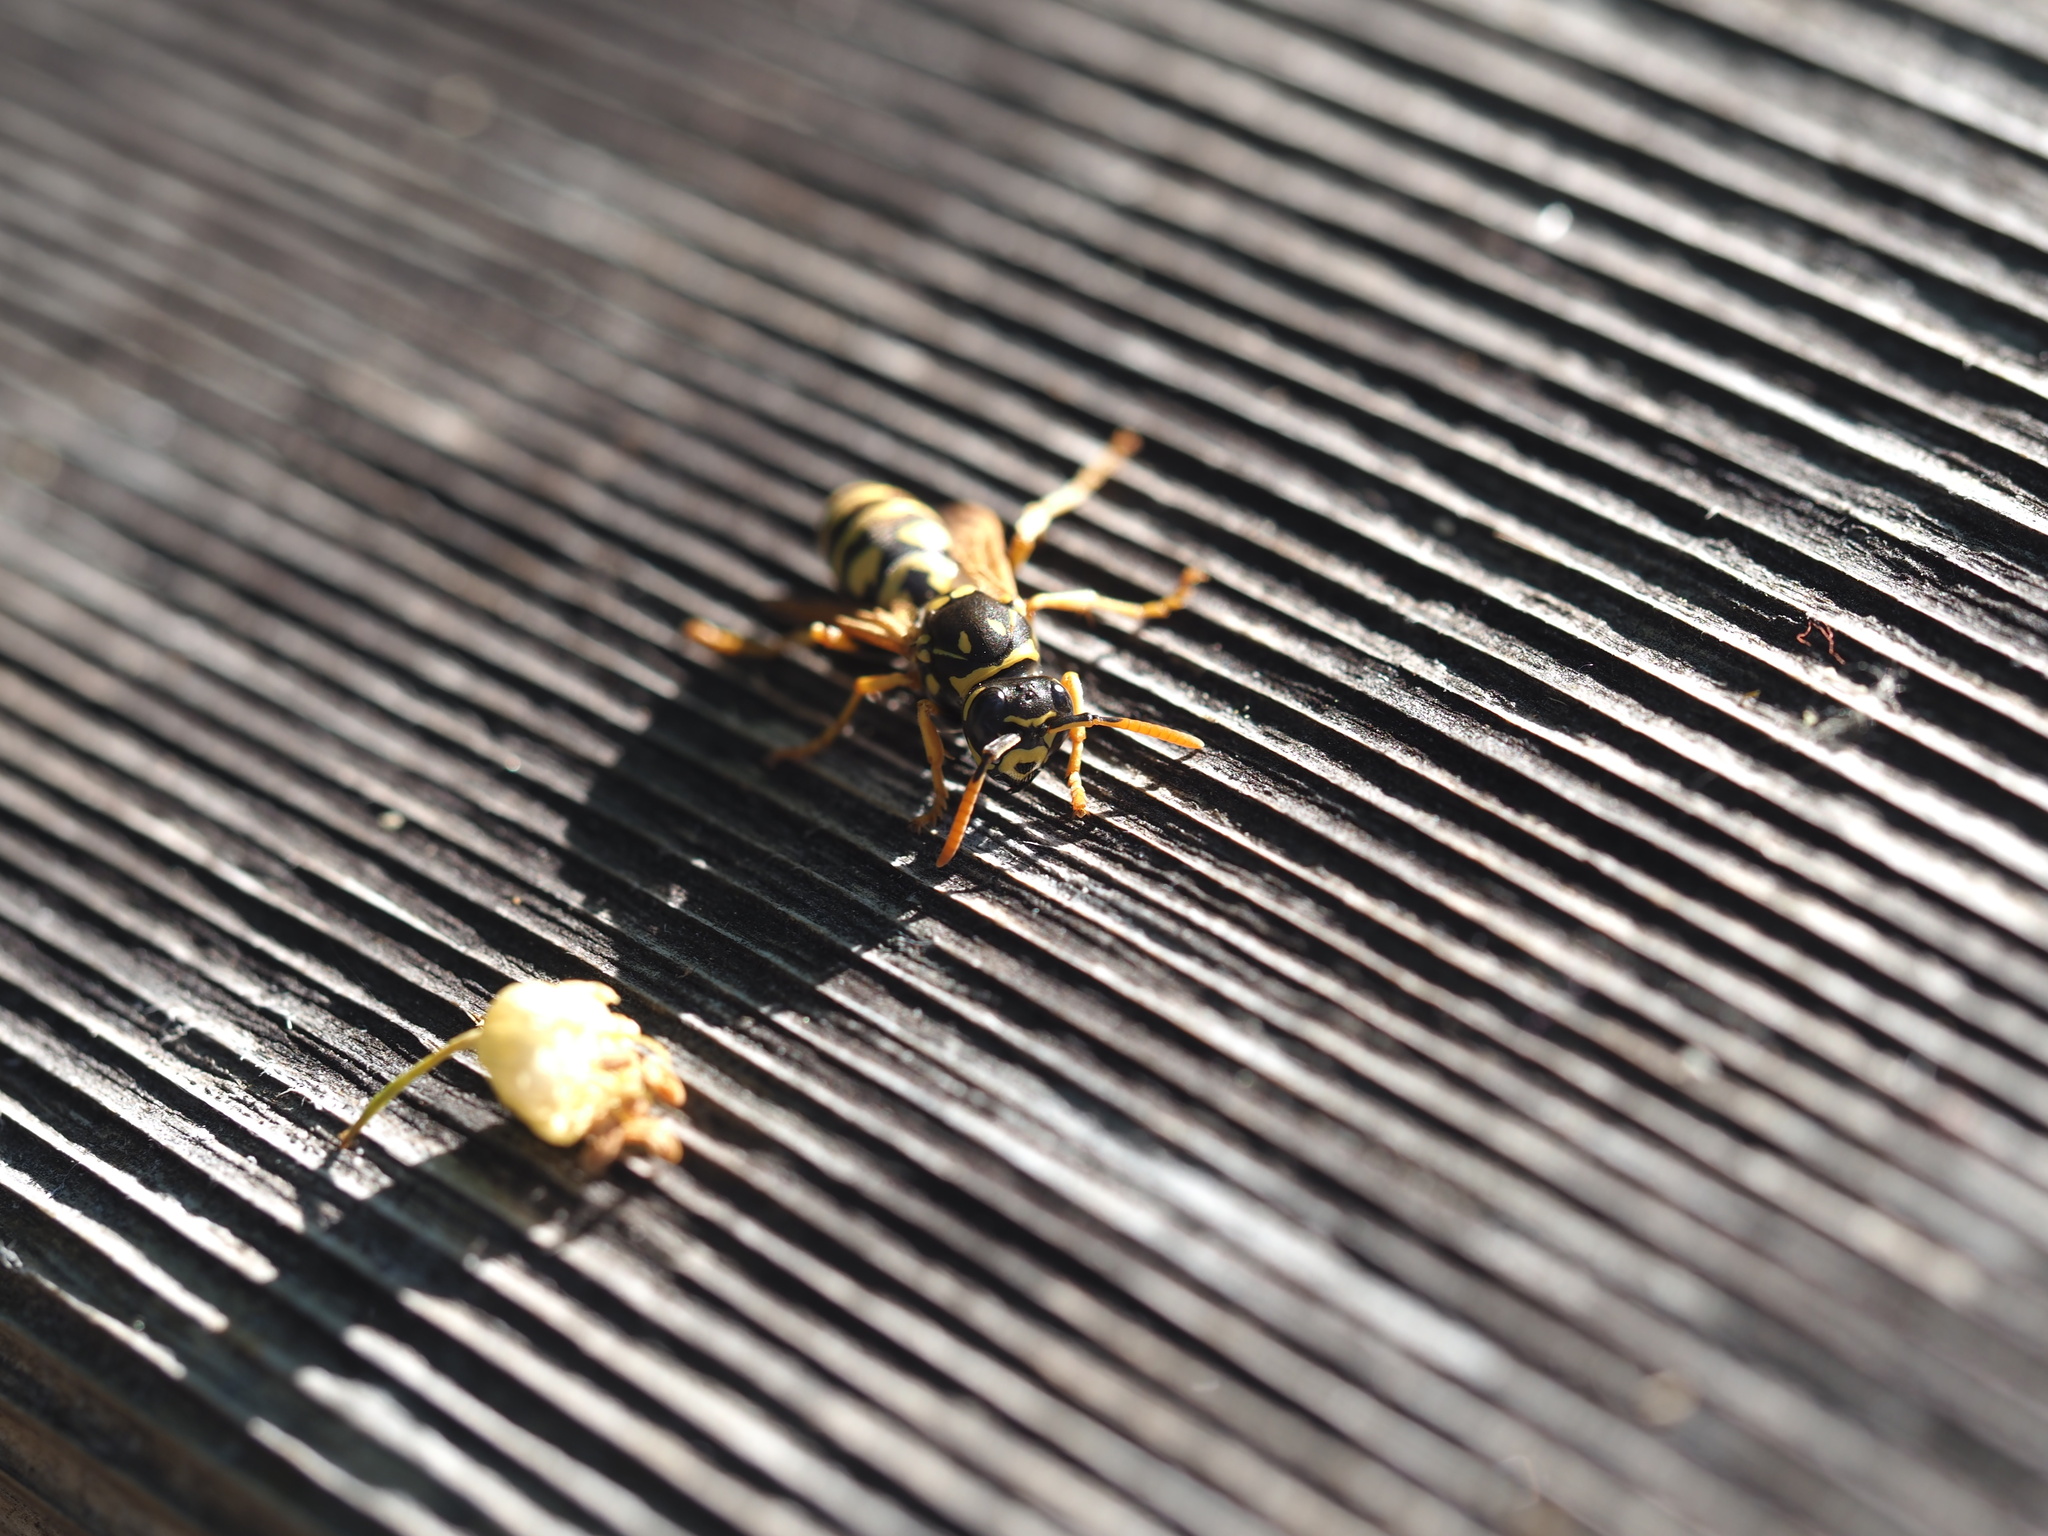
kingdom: Animalia
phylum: Arthropoda
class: Insecta
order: Hymenoptera
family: Eumenidae
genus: Polistes
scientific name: Polistes dominula
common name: Paper wasp
